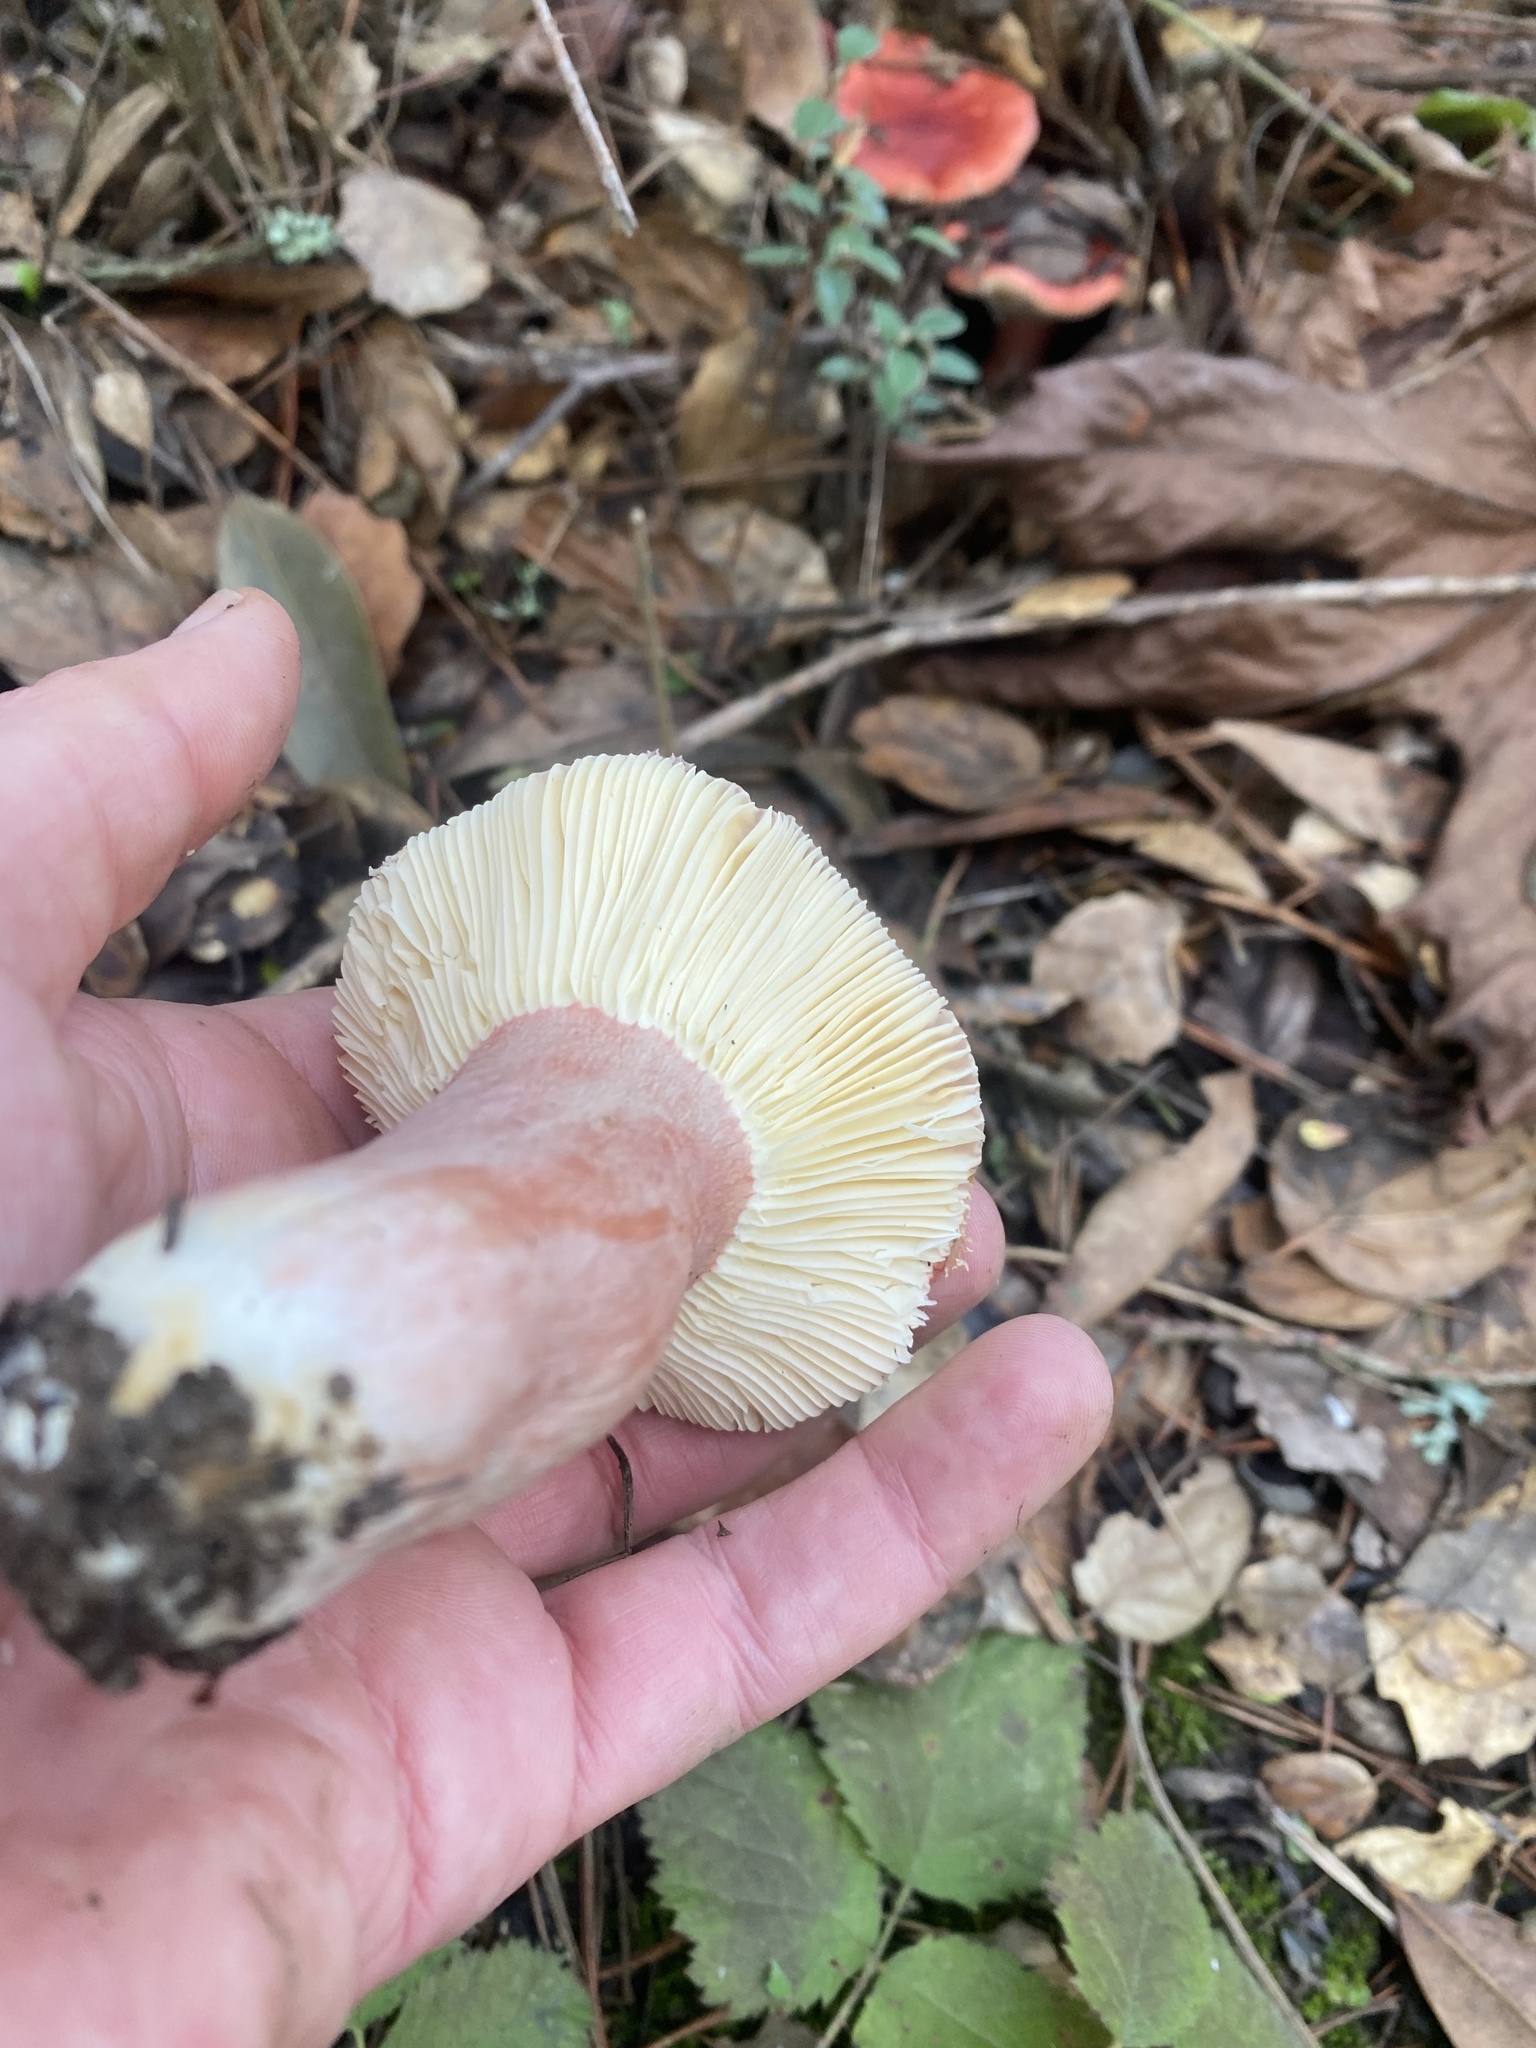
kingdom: Fungi
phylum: Basidiomycota
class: Agaricomycetes
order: Russulales
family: Russulaceae
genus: Russula
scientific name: Russula rhodocephala
